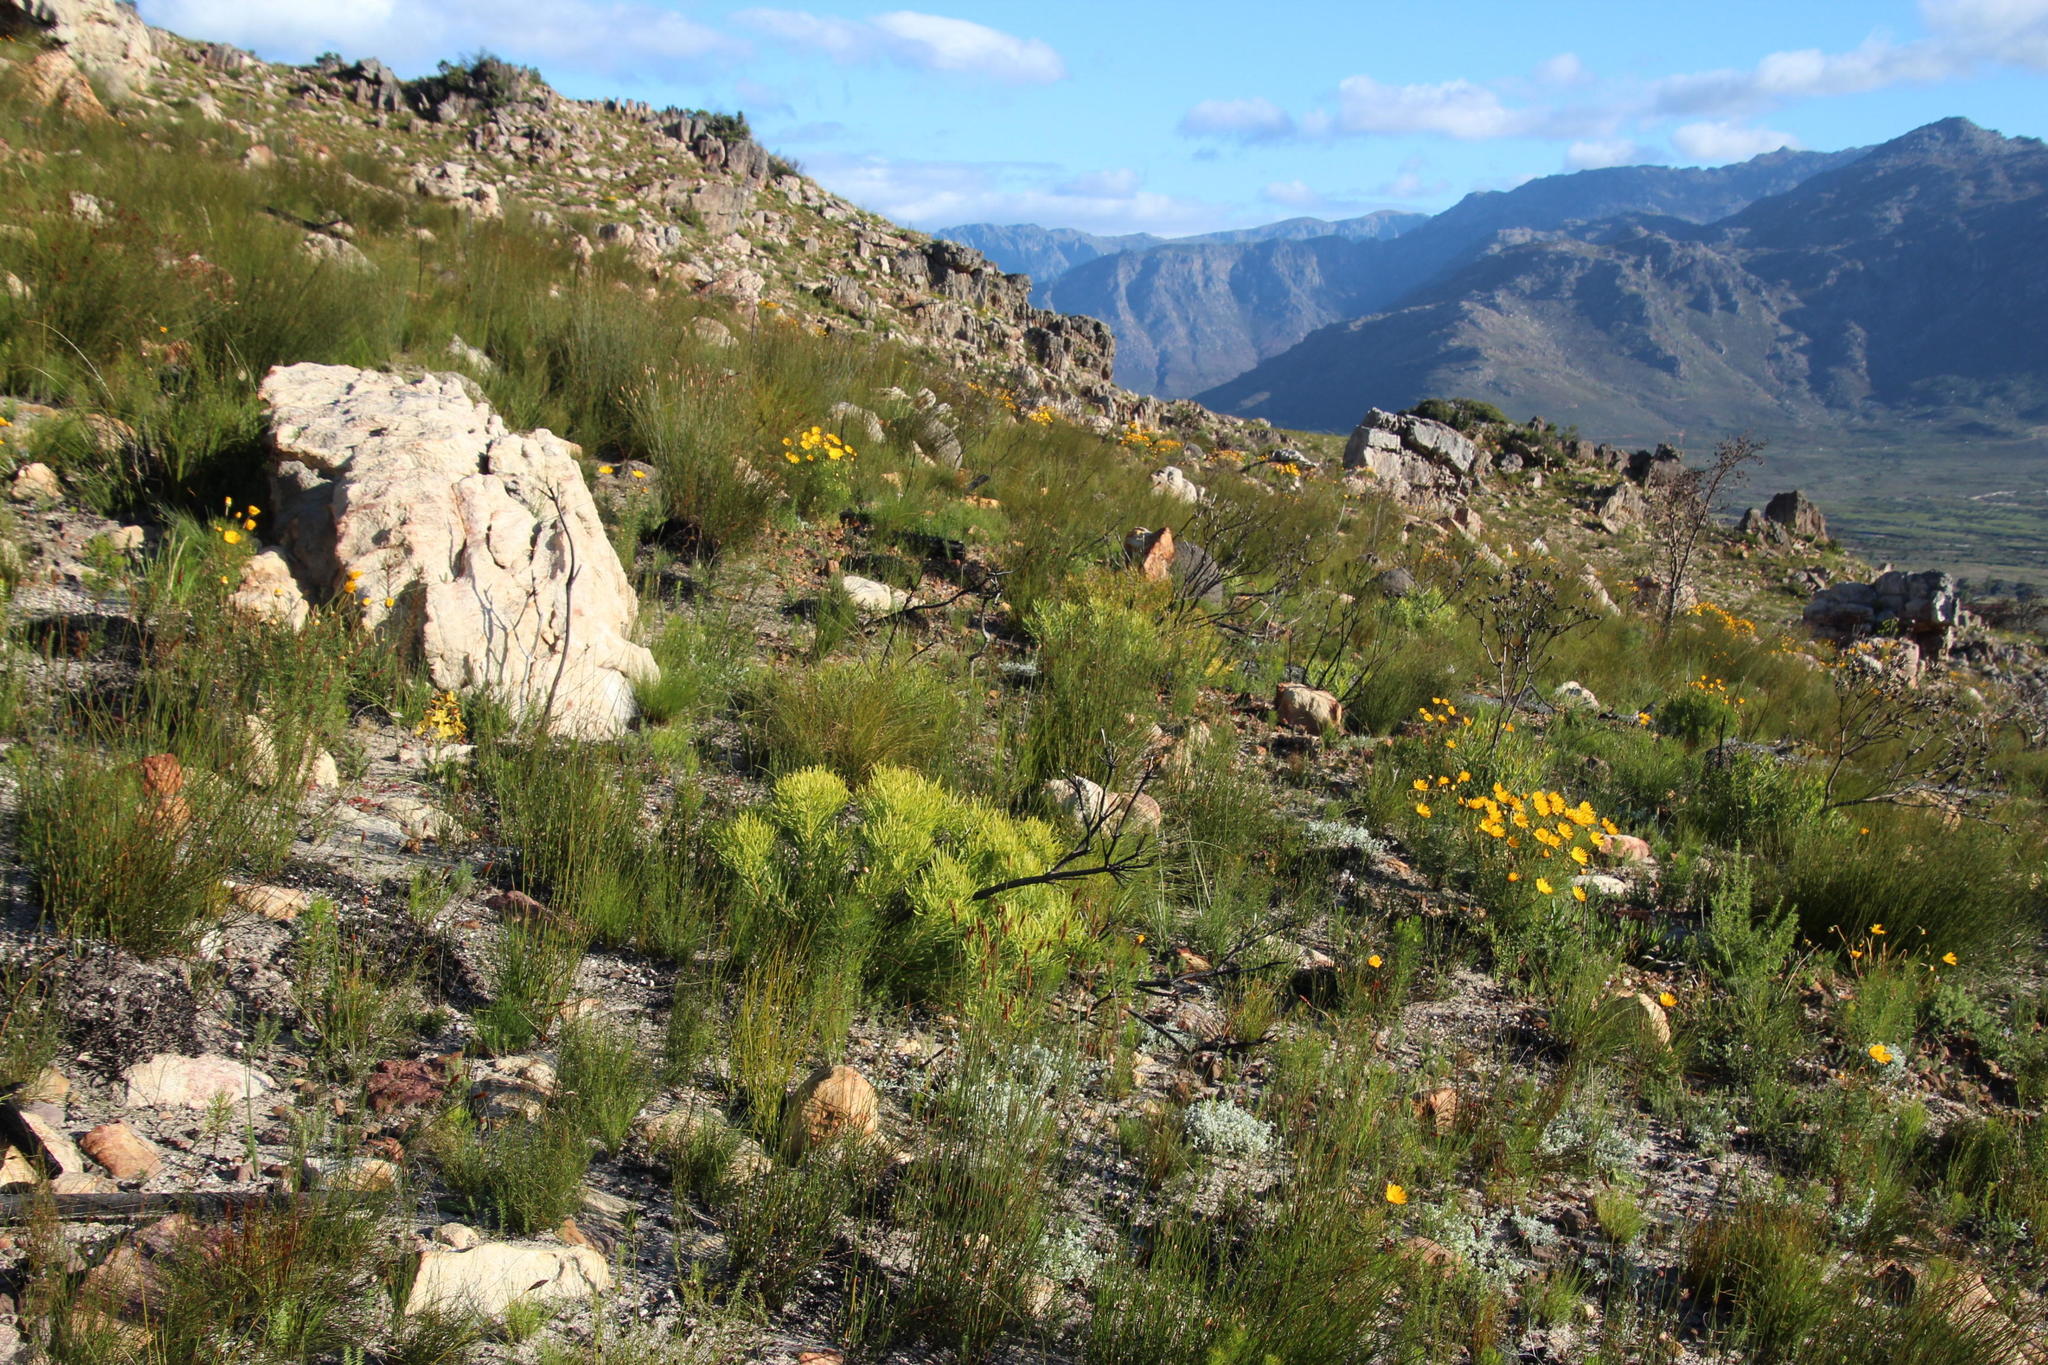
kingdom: Plantae
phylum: Tracheophyta
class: Magnoliopsida
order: Proteales
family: Proteaceae
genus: Leucadendron
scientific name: Leucadendron salignum
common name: Common sunshine conebush
